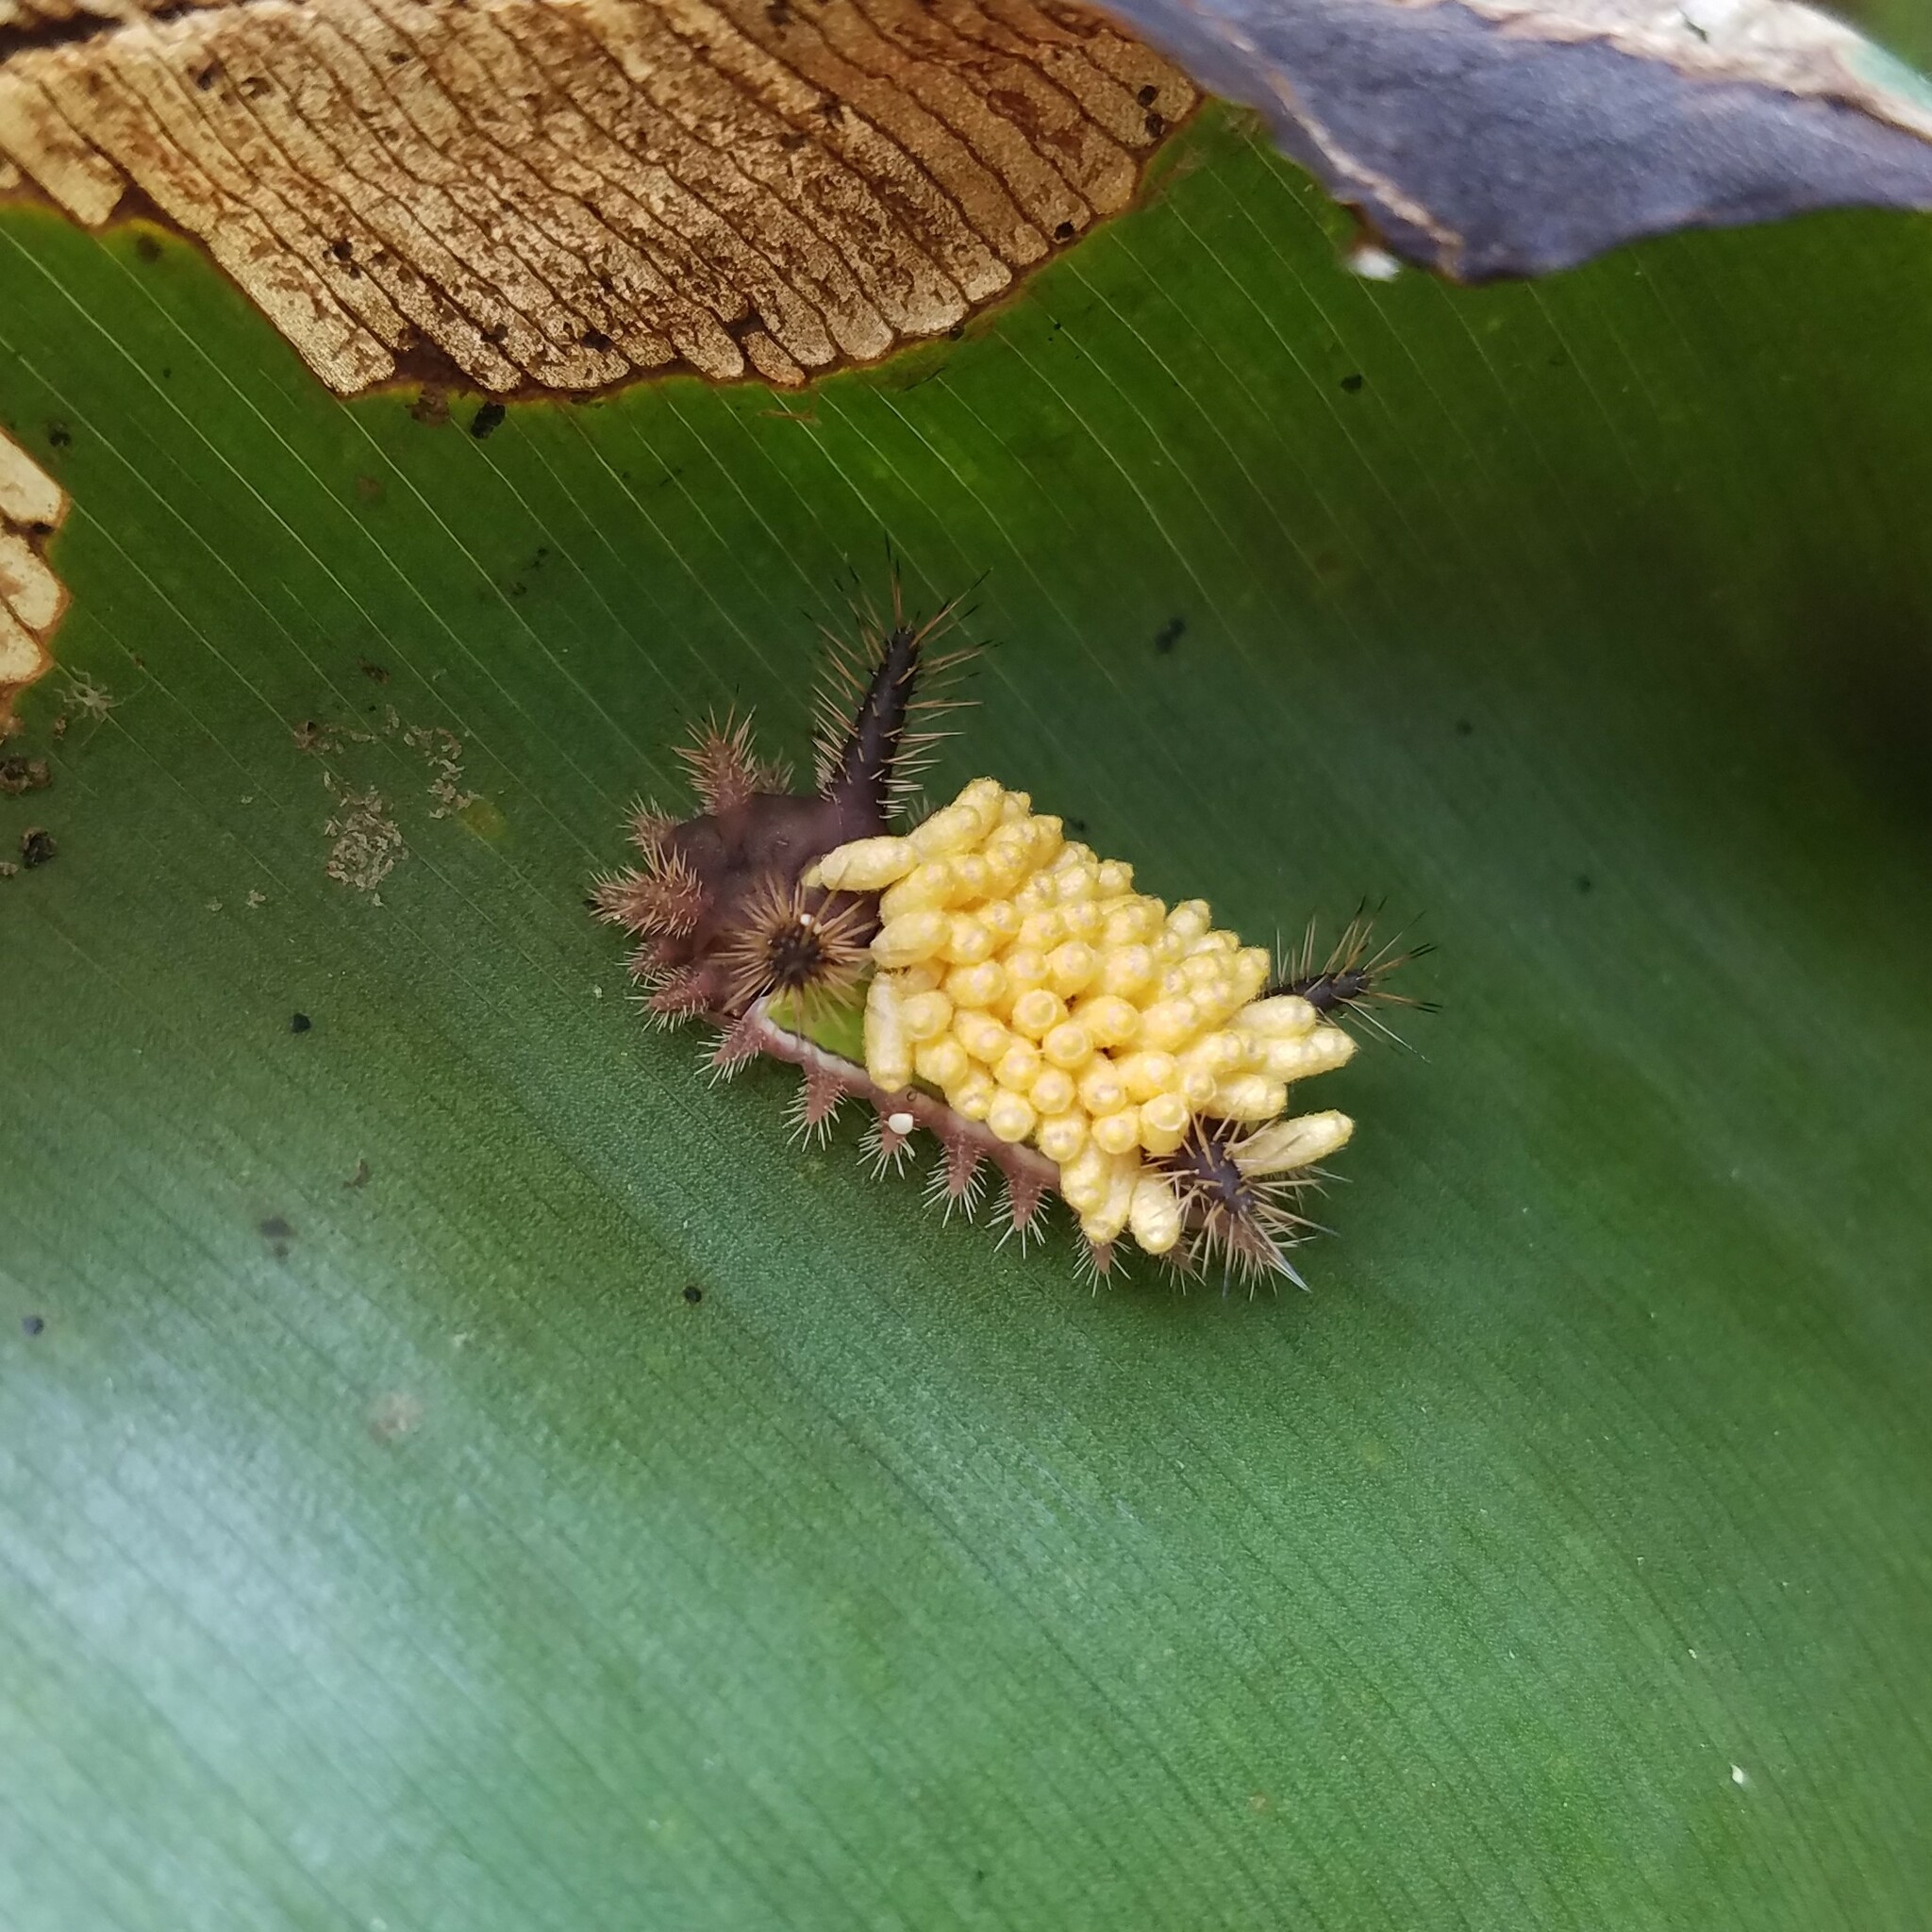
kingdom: Animalia
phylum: Arthropoda
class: Insecta
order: Lepidoptera
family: Limacodidae
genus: Acharia
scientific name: Acharia stimulea
